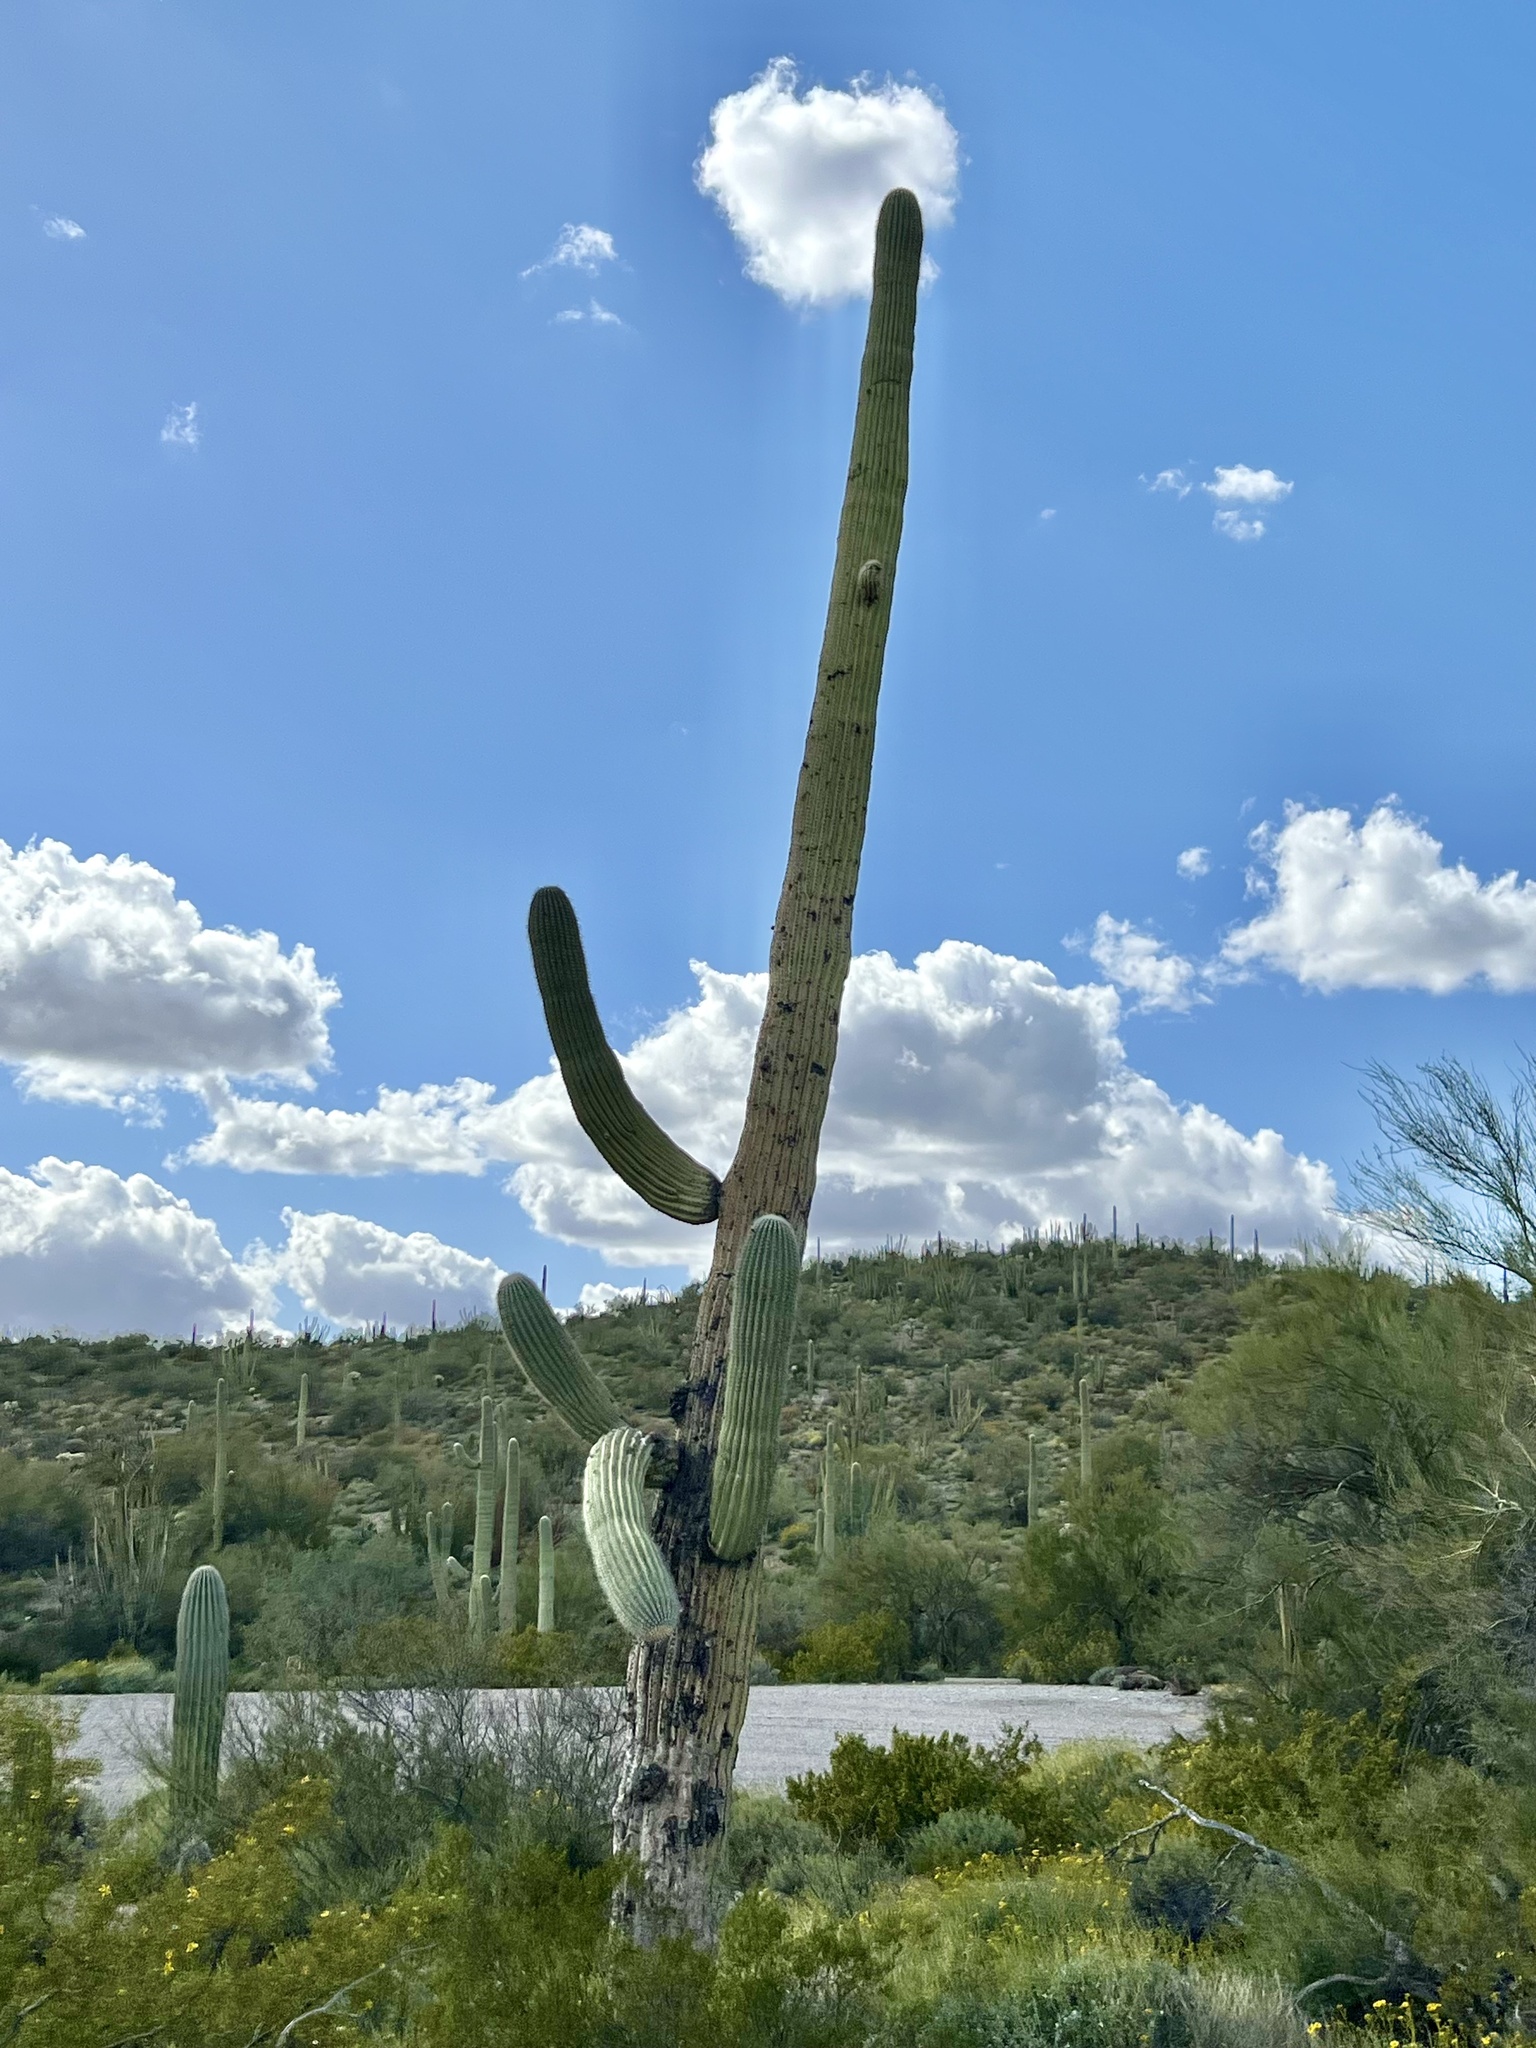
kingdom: Plantae
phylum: Tracheophyta
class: Magnoliopsida
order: Caryophyllales
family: Cactaceae
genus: Carnegiea
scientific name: Carnegiea gigantea
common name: Saguaro
